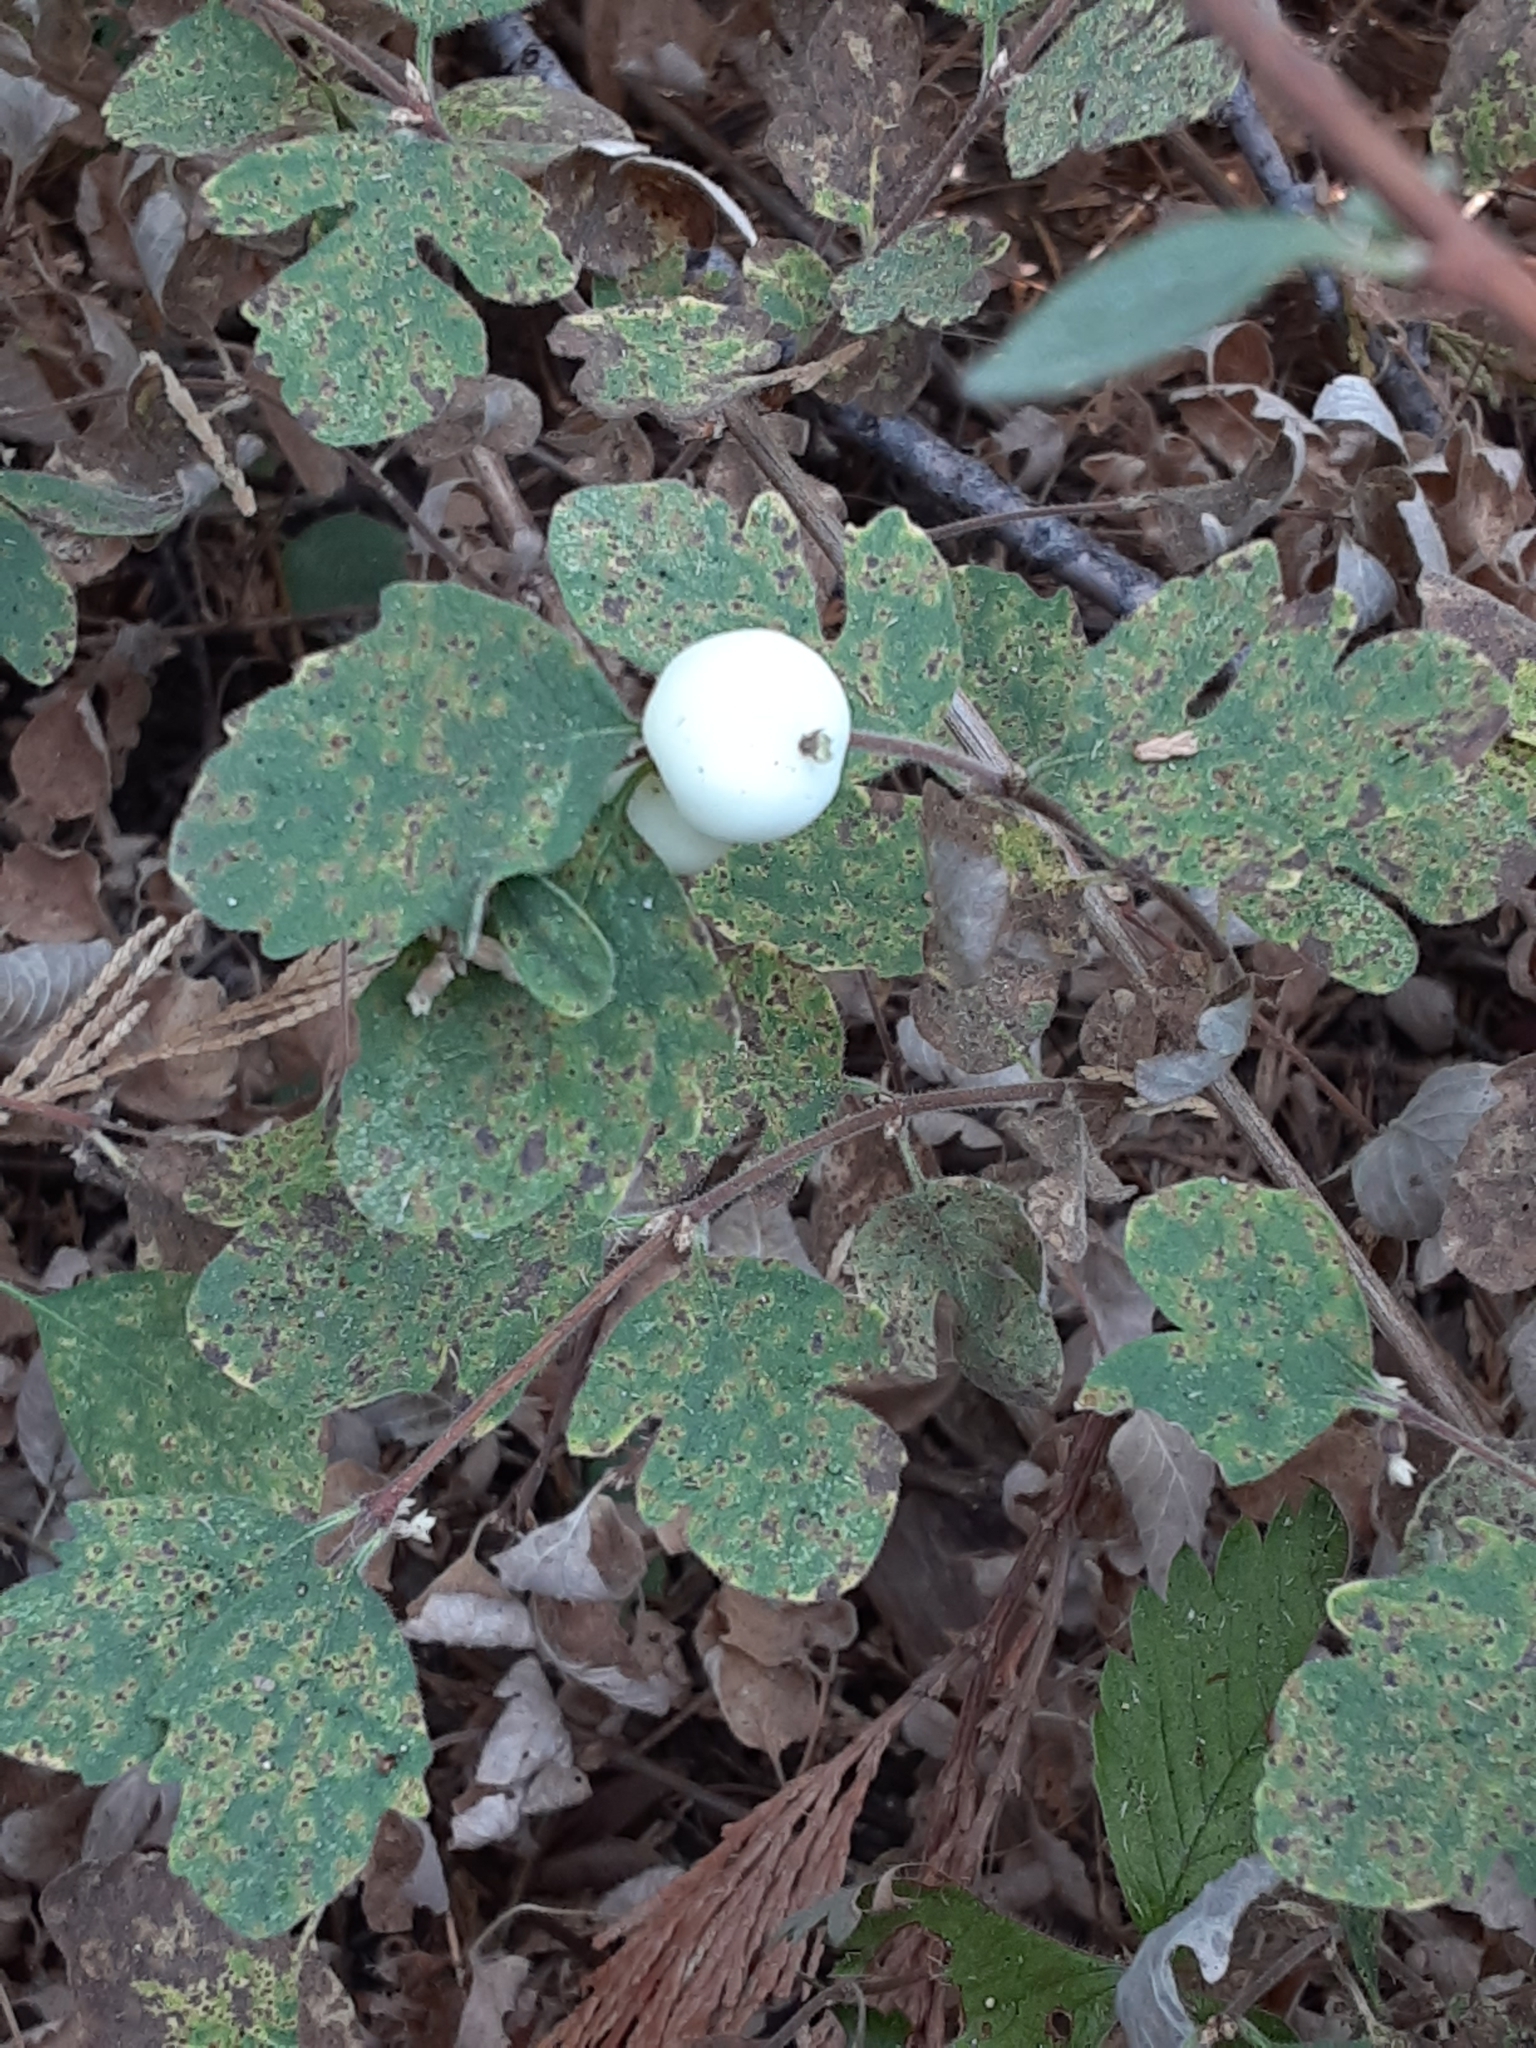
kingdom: Plantae
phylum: Tracheophyta
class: Magnoliopsida
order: Dipsacales
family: Caprifoliaceae
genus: Symphoricarpos
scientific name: Symphoricarpos mollis
